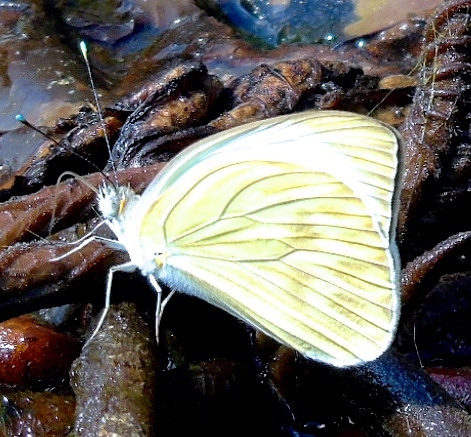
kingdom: Animalia
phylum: Arthropoda
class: Insecta
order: Lepidoptera
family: Pieridae
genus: Ascia
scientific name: Ascia monuste
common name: Great southern white
